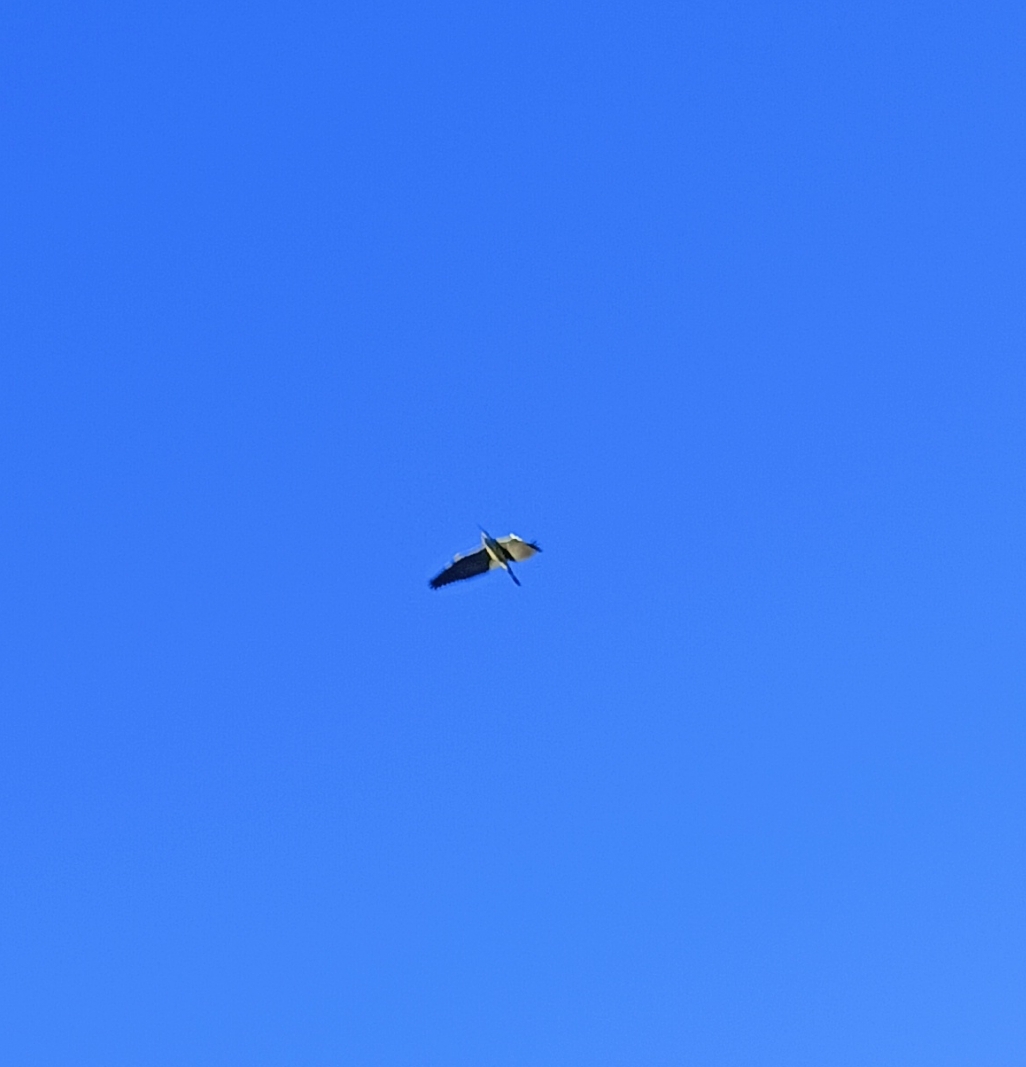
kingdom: Animalia
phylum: Chordata
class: Aves
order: Pelecaniformes
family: Ardeidae
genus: Ardea
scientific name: Ardea cinerea
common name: Grey heron
